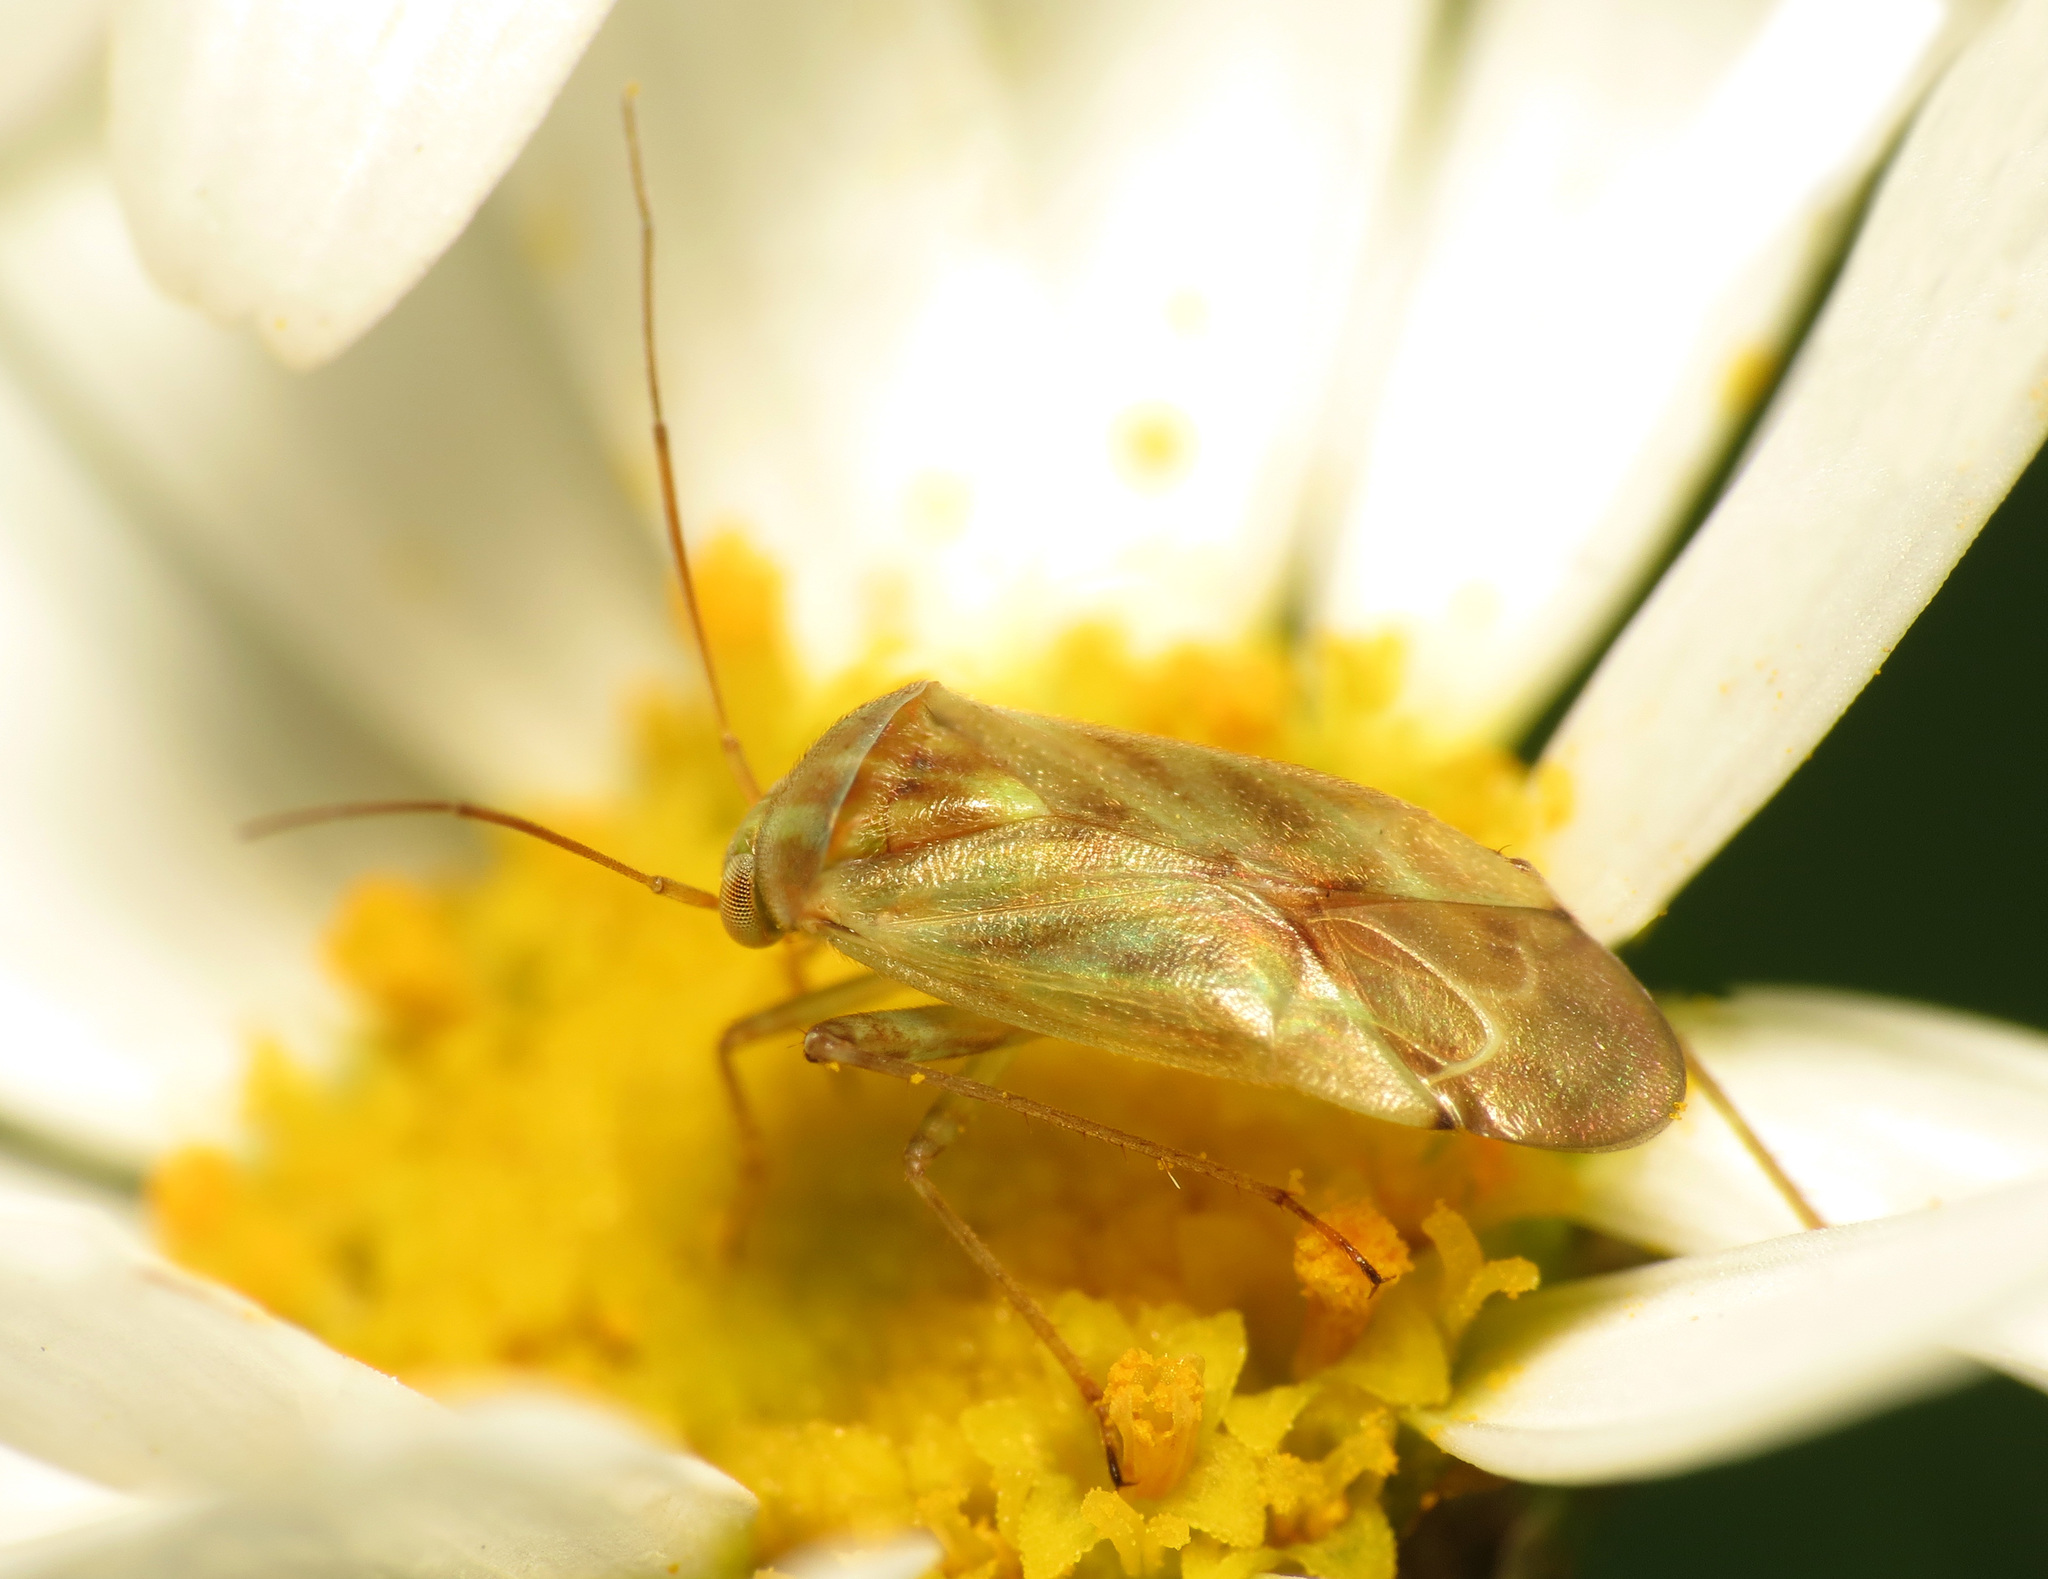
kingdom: Animalia
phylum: Arthropoda
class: Insecta
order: Hemiptera
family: Miridae
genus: Taylorilygus
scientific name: Taylorilygus apicalis
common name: Plant bug
